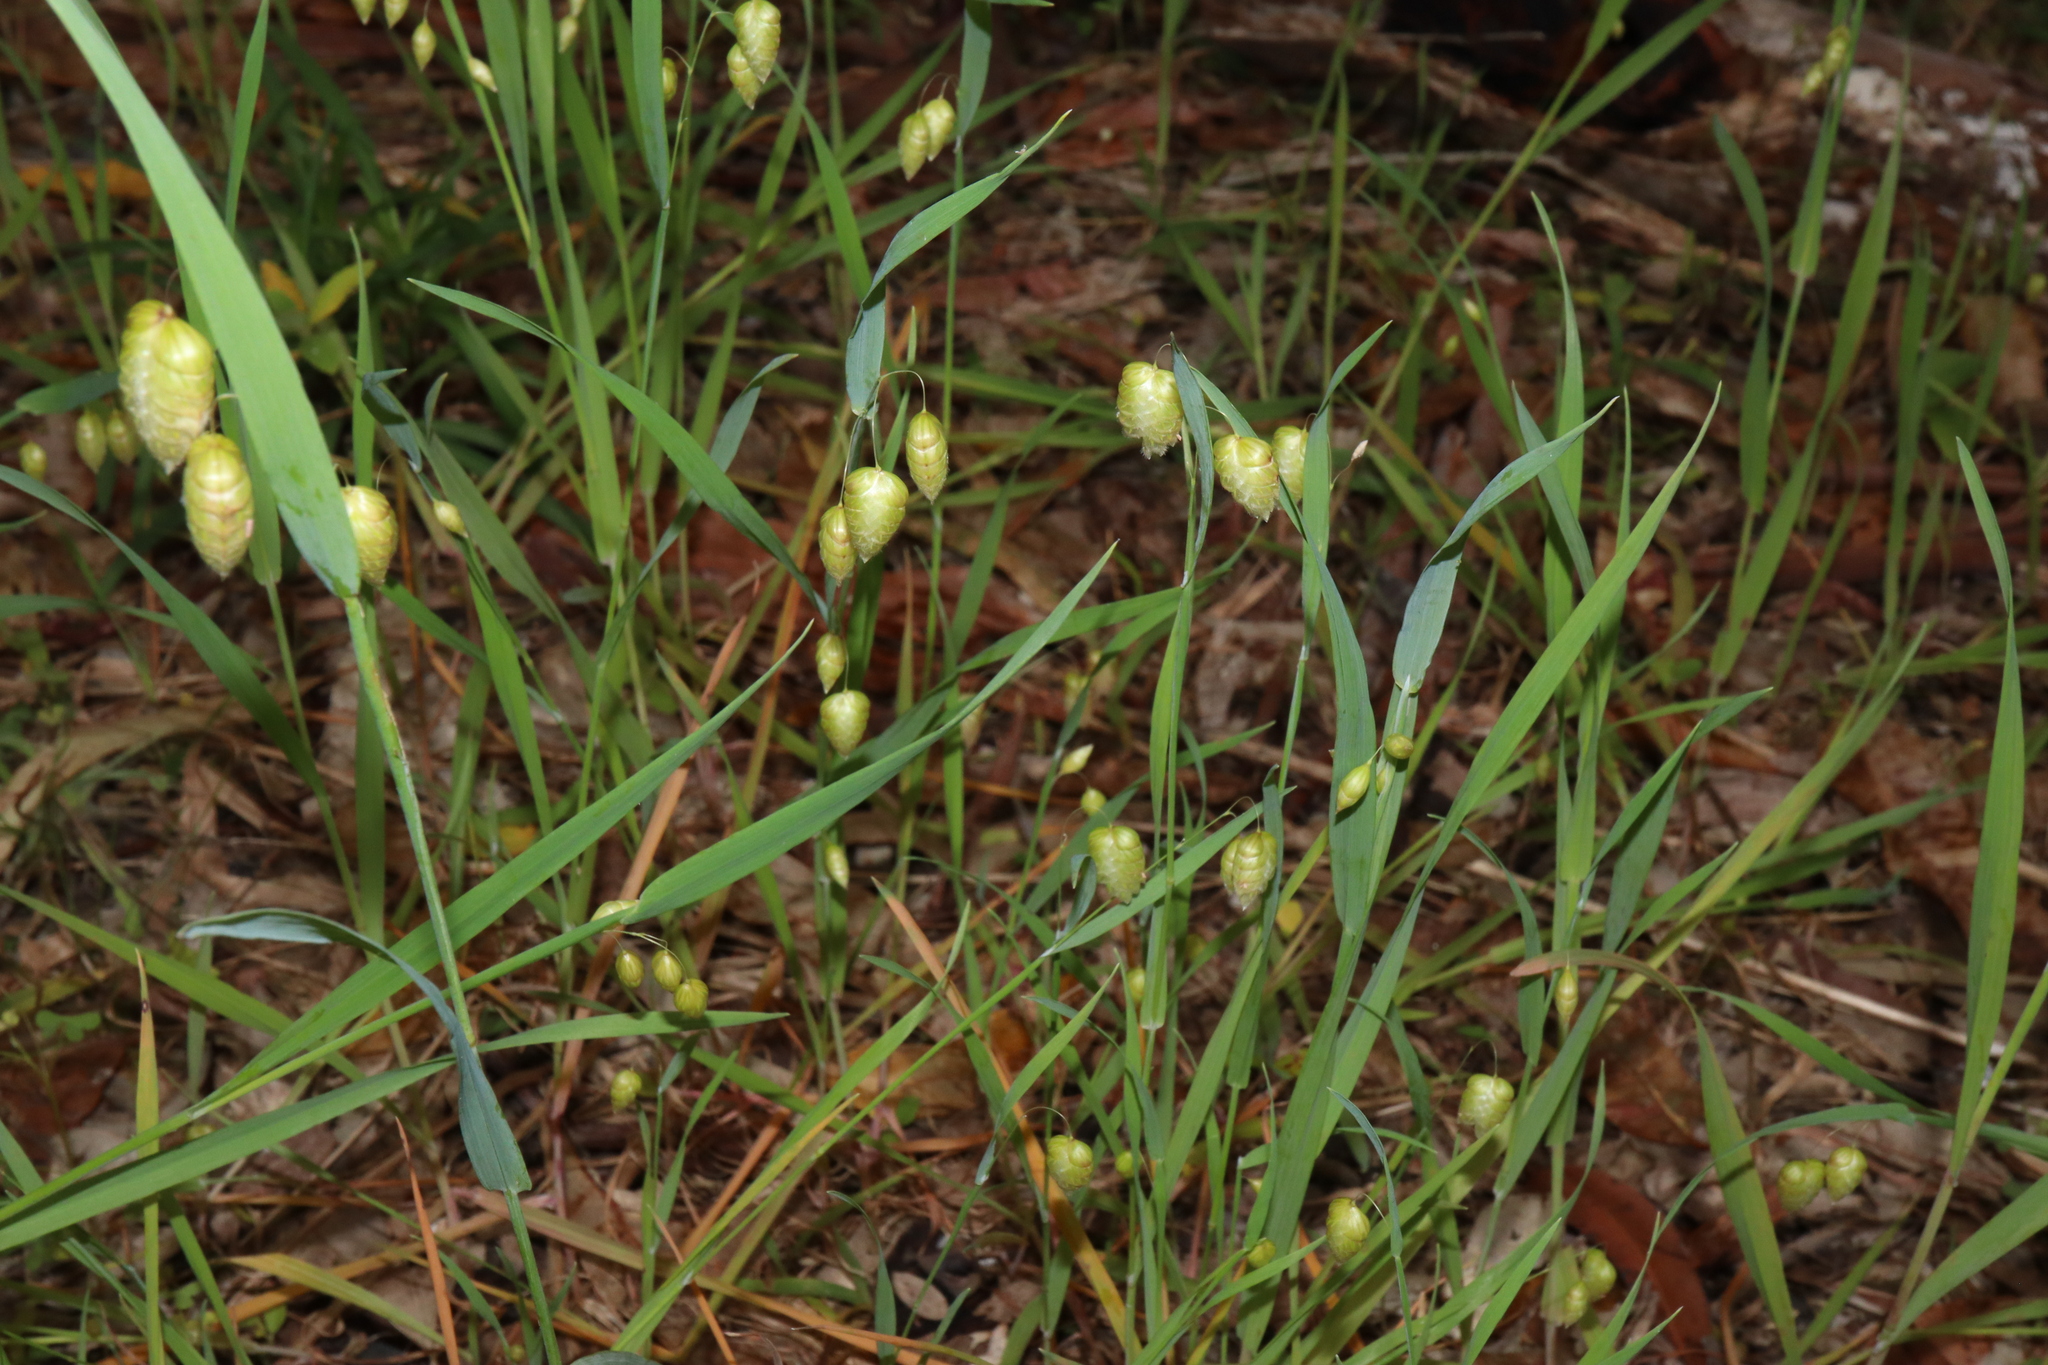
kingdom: Plantae
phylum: Tracheophyta
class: Liliopsida
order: Poales
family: Poaceae
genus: Briza
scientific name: Briza maxima
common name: Big quakinggrass
